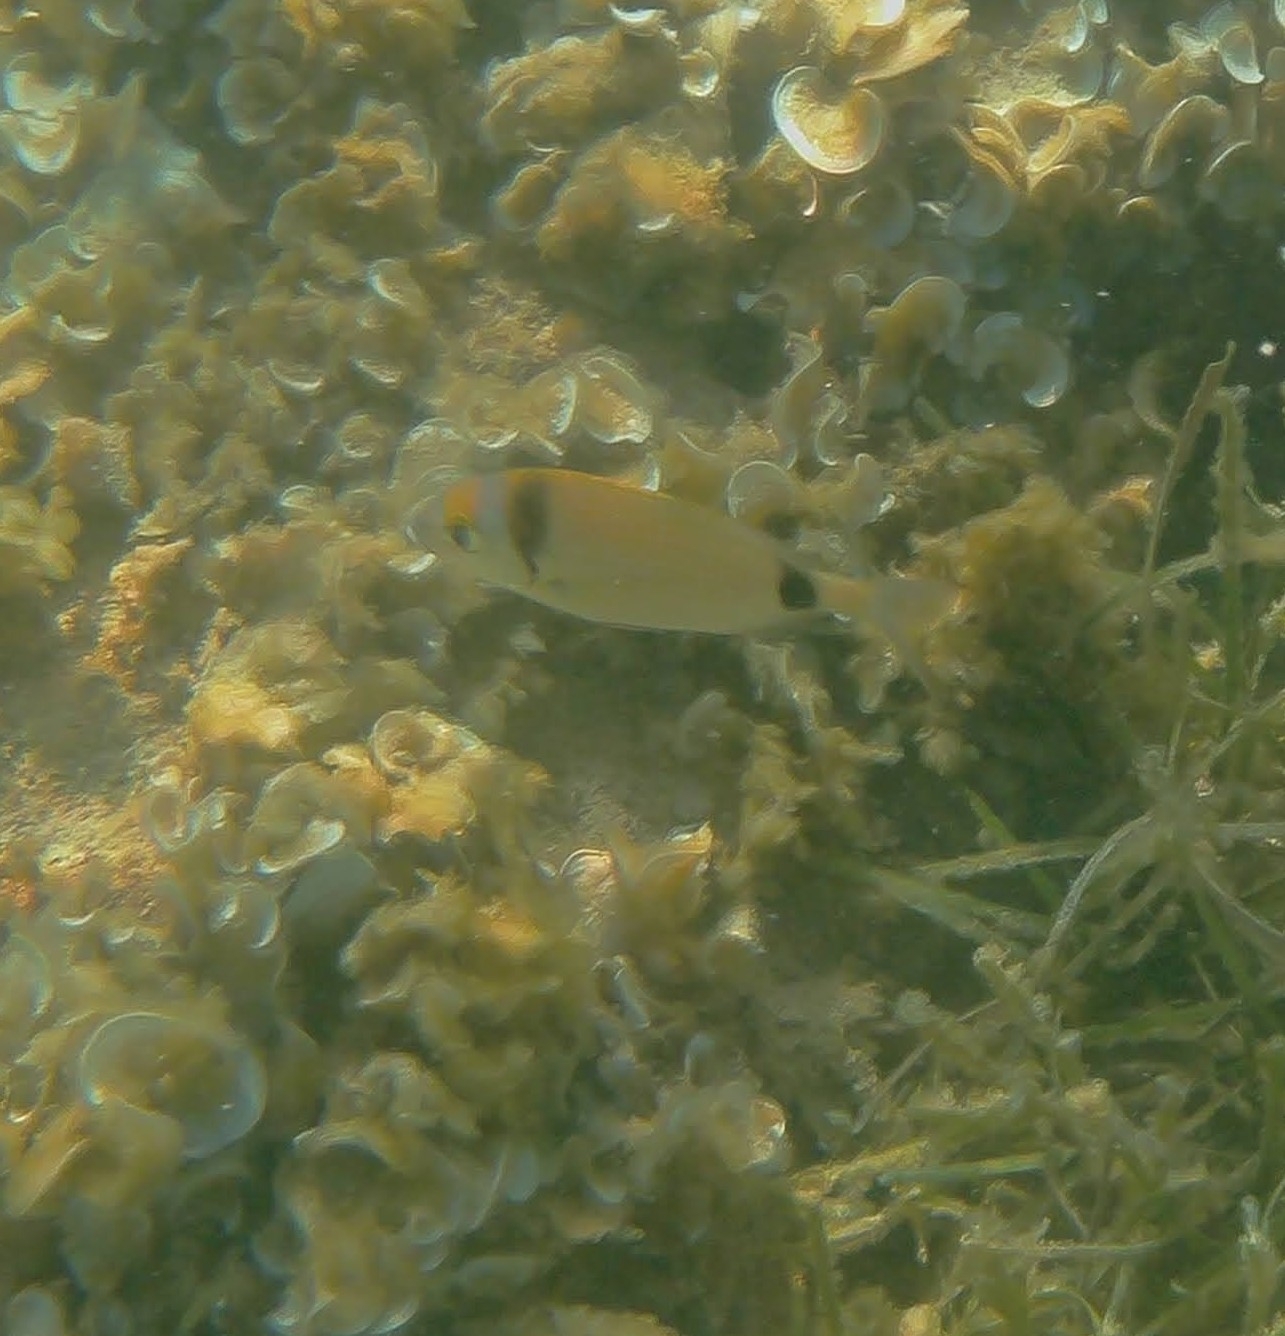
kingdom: Animalia
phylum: Chordata
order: Perciformes
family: Sparidae
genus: Diplodus
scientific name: Diplodus vulgaris
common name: Common two-banded seabream
